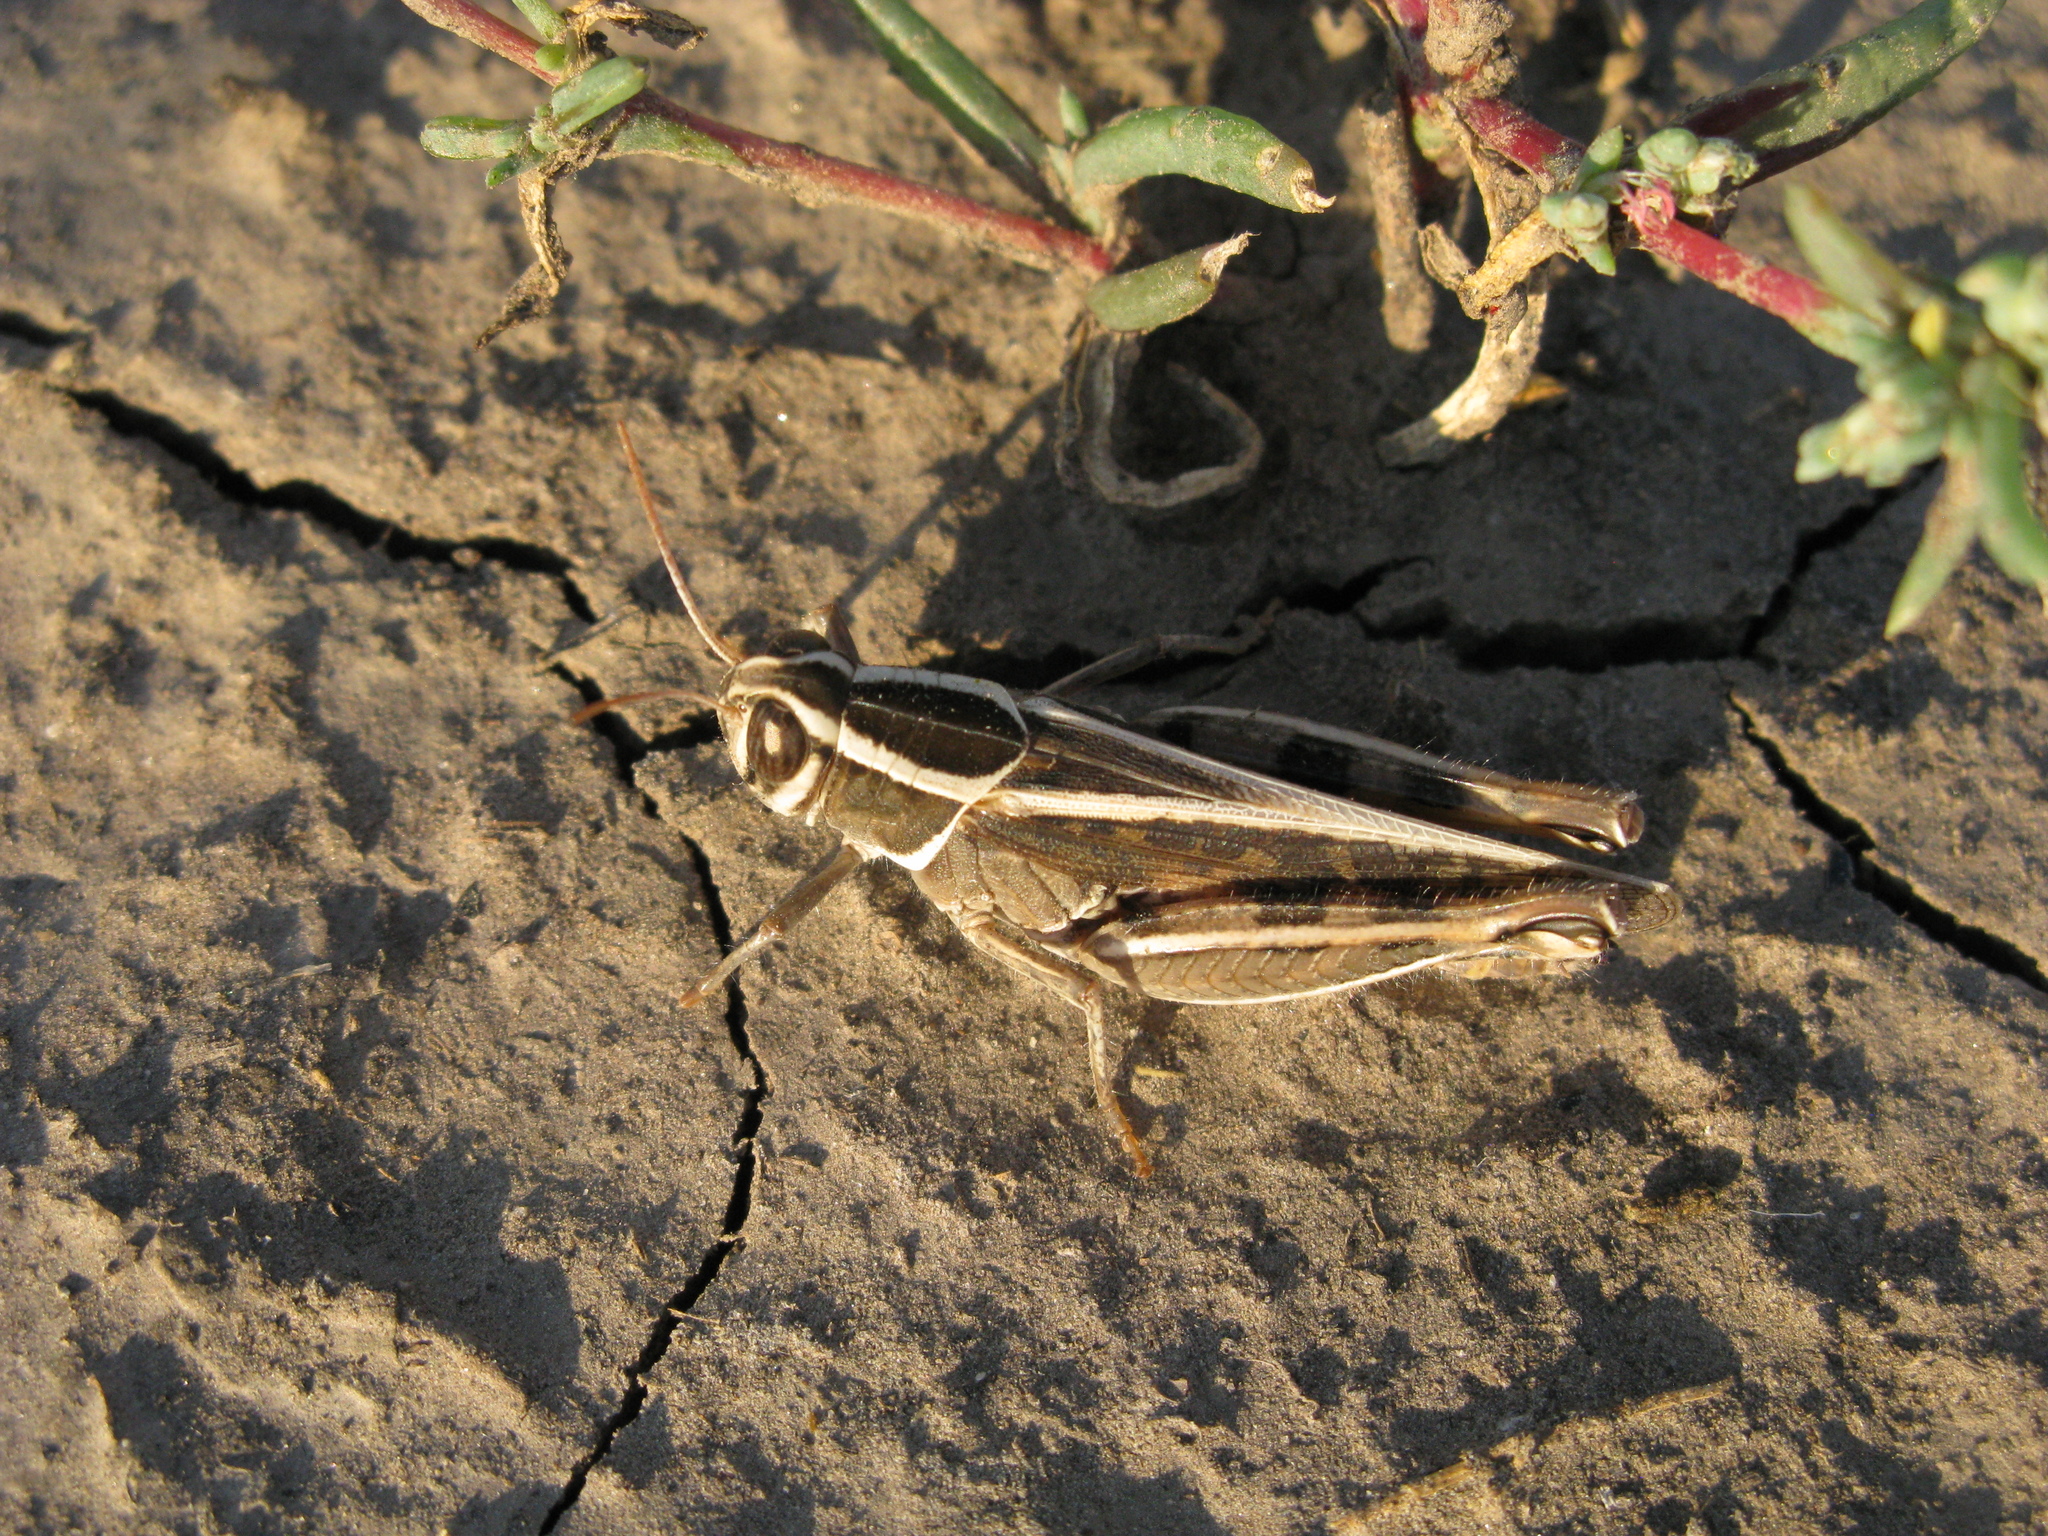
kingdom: Animalia
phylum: Arthropoda
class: Insecta
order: Orthoptera
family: Acrididae
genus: Calliptamus
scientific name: Calliptamus barbarus
